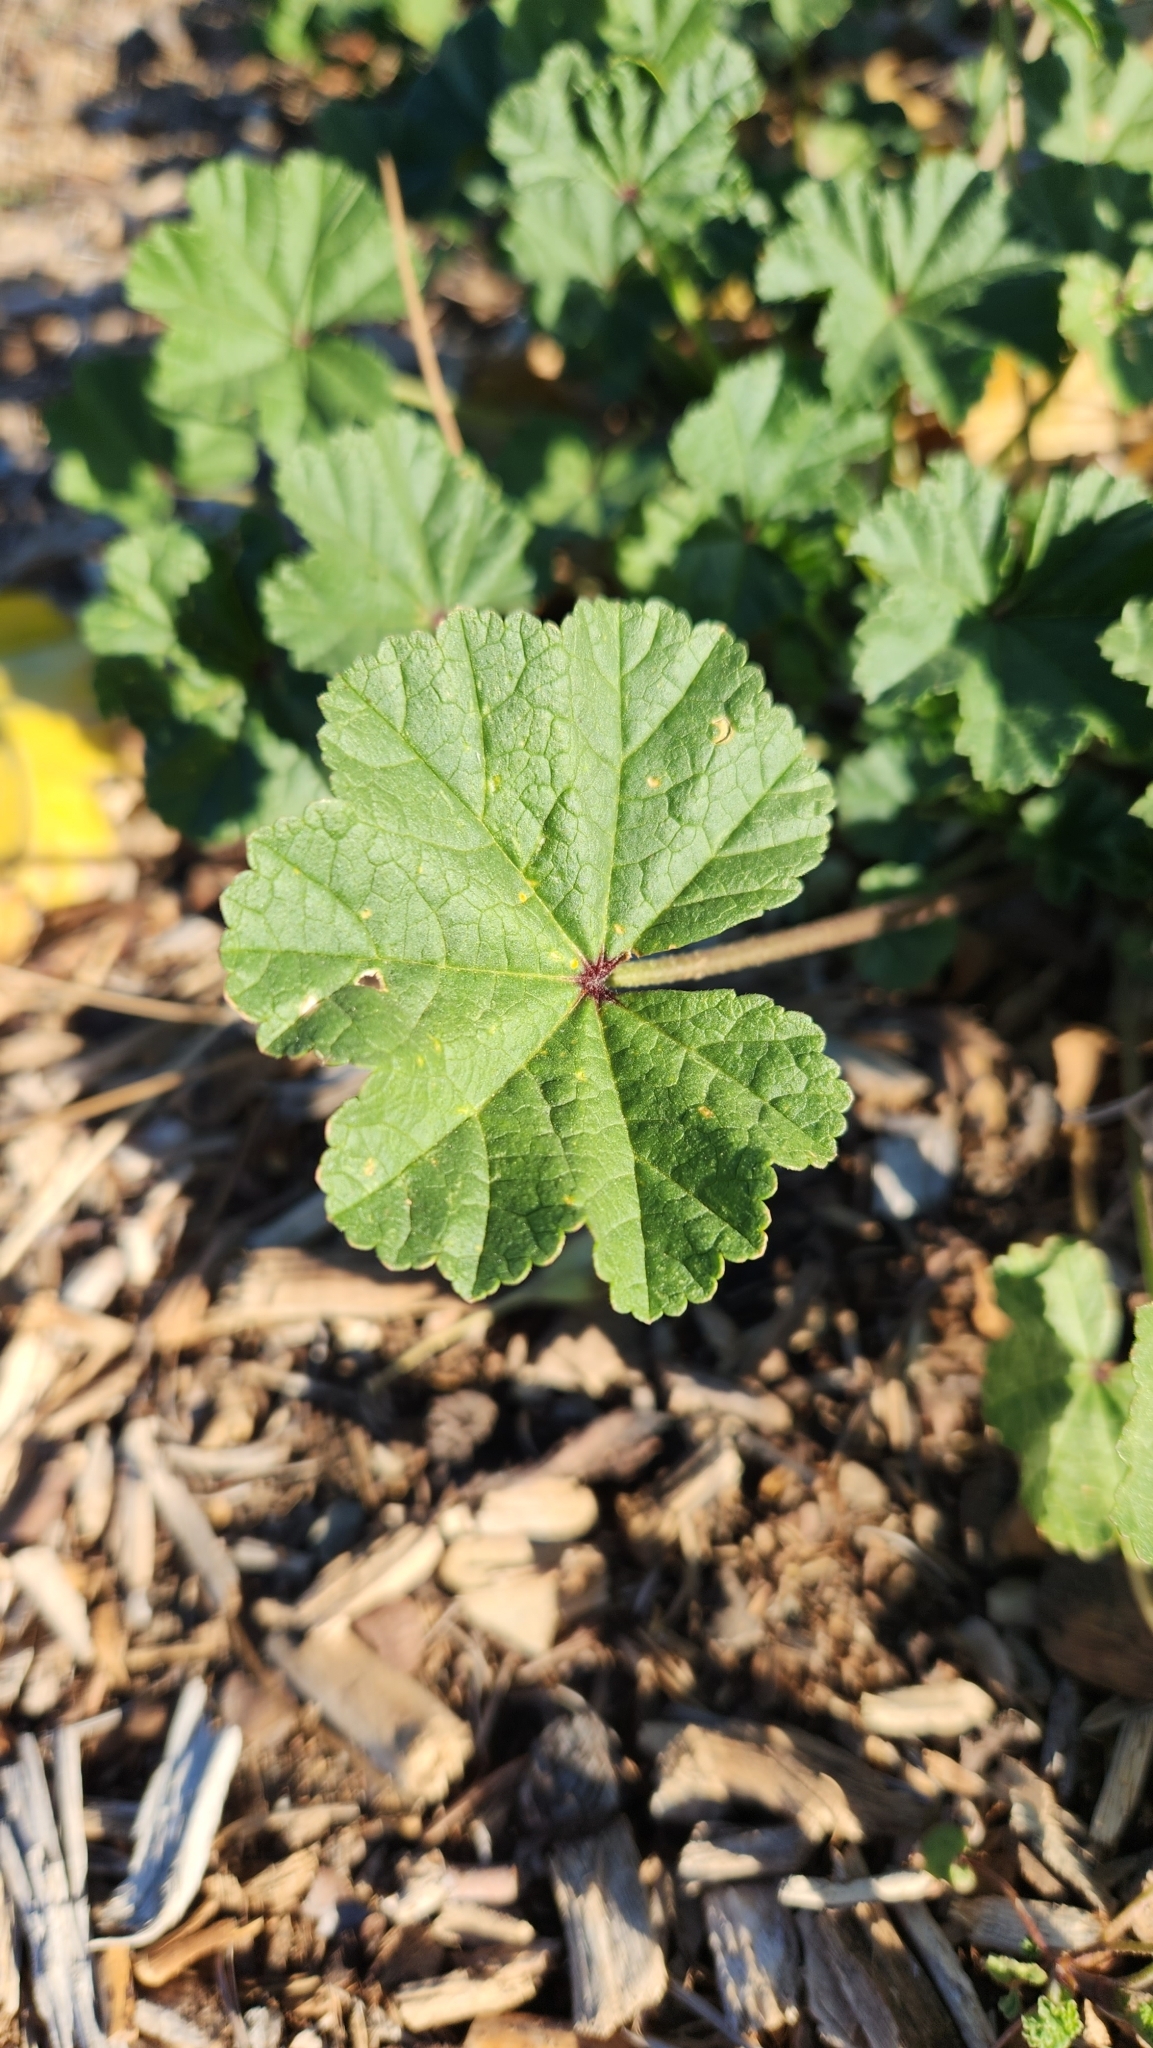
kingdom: Plantae
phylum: Tracheophyta
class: Magnoliopsida
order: Malvales
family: Malvaceae
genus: Malva
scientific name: Malva
